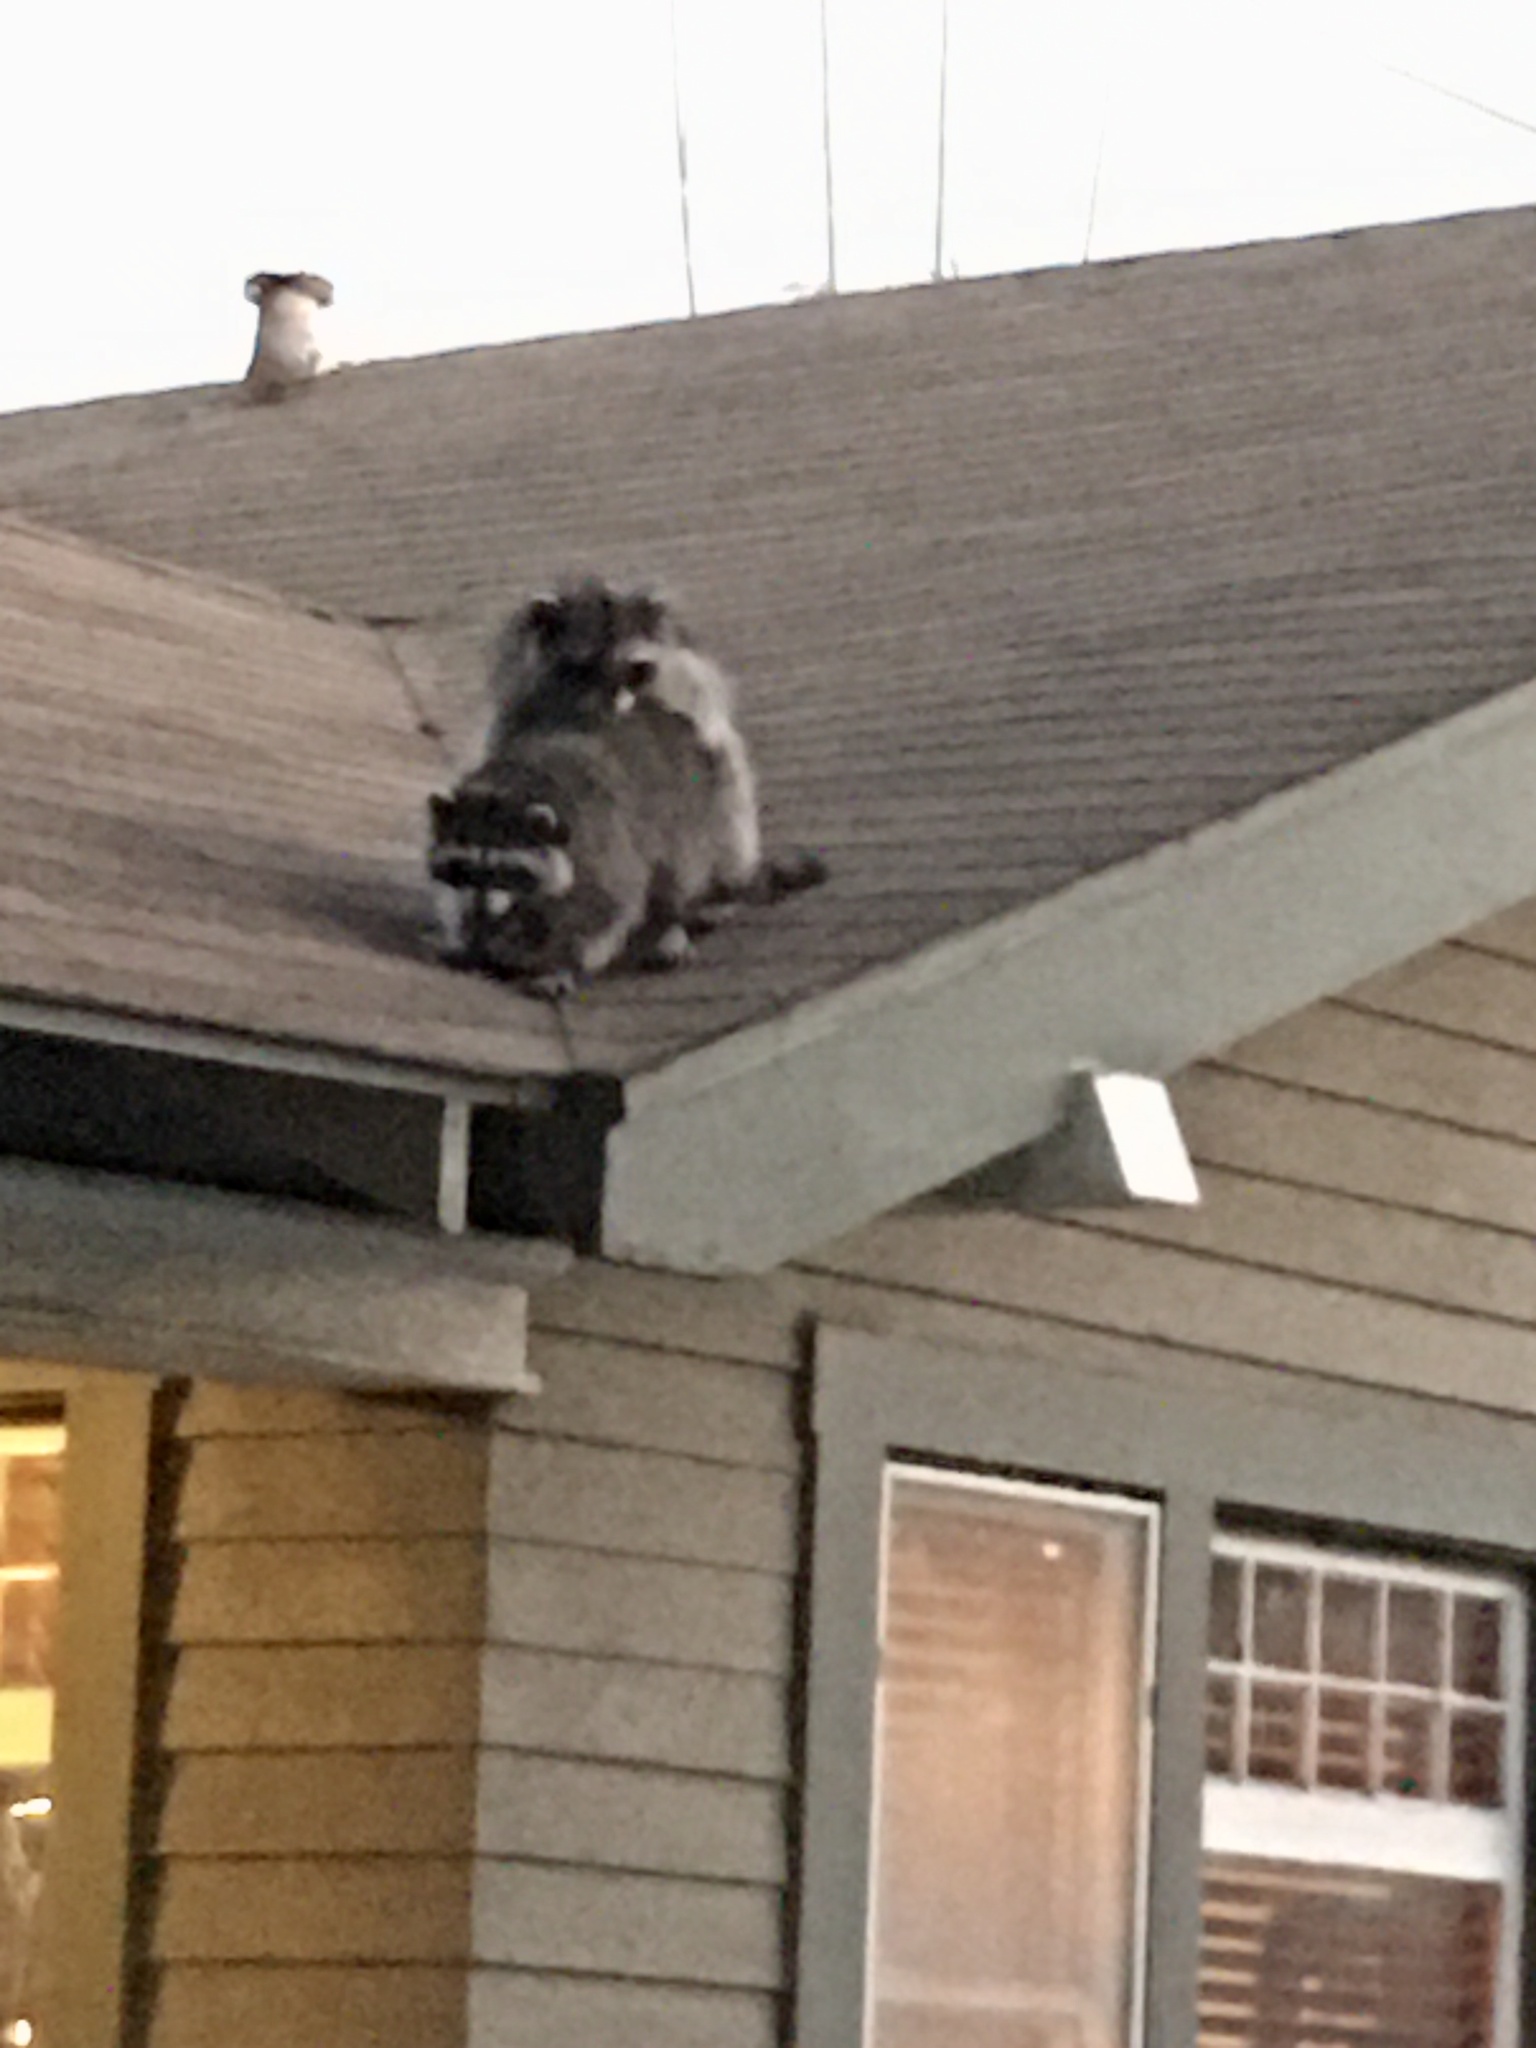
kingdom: Animalia
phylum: Chordata
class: Mammalia
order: Carnivora
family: Procyonidae
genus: Procyon
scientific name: Procyon lotor
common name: Raccoon
